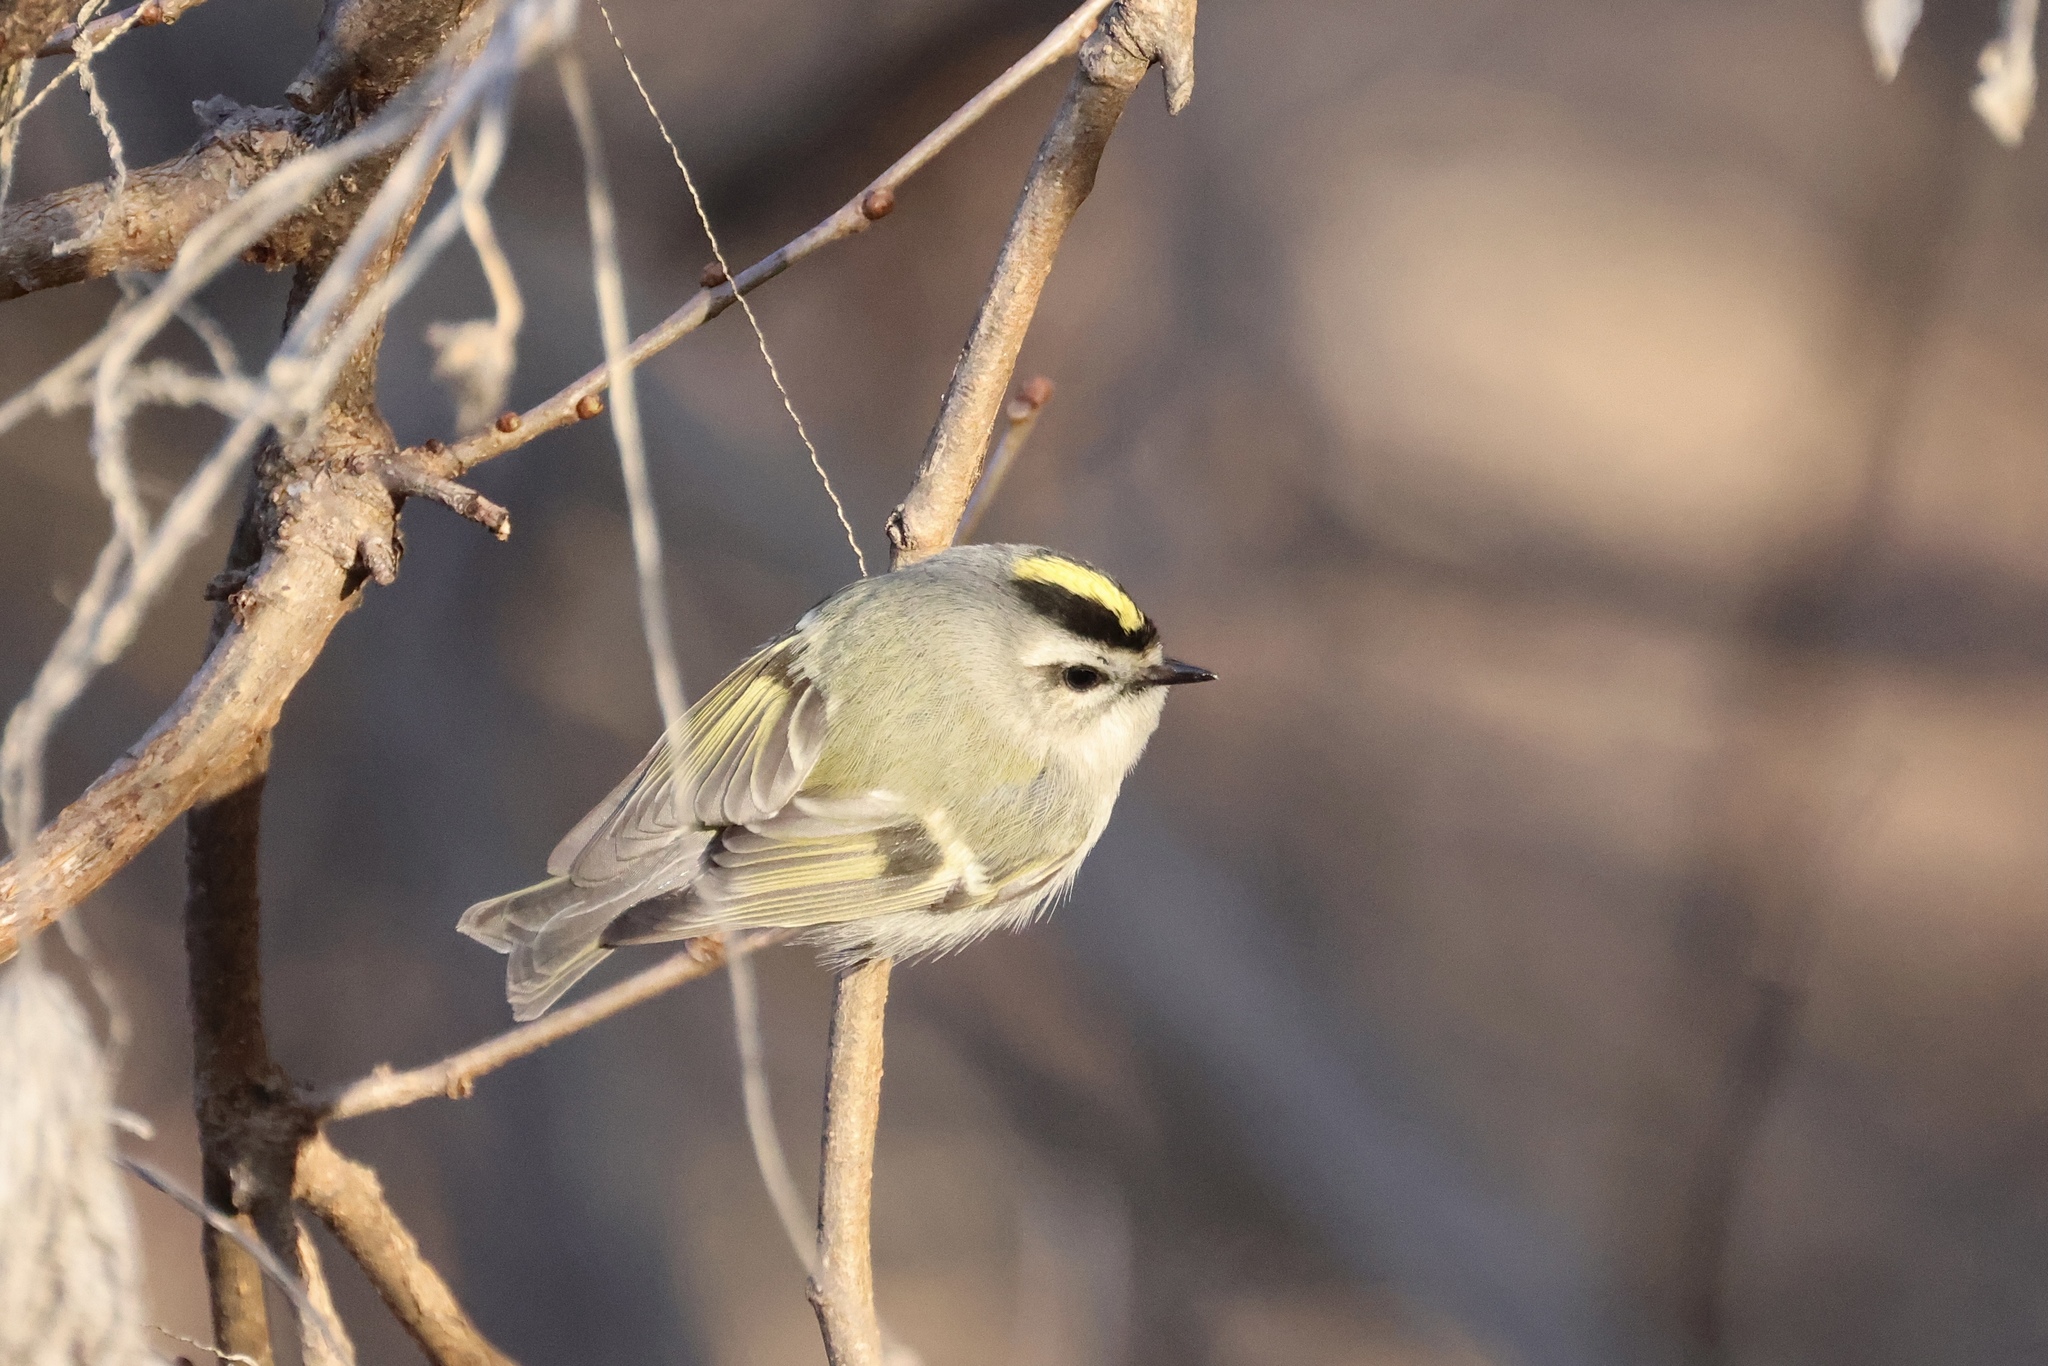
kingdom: Animalia
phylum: Chordata
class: Aves
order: Passeriformes
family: Regulidae
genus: Regulus
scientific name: Regulus satrapa
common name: Golden-crowned kinglet
